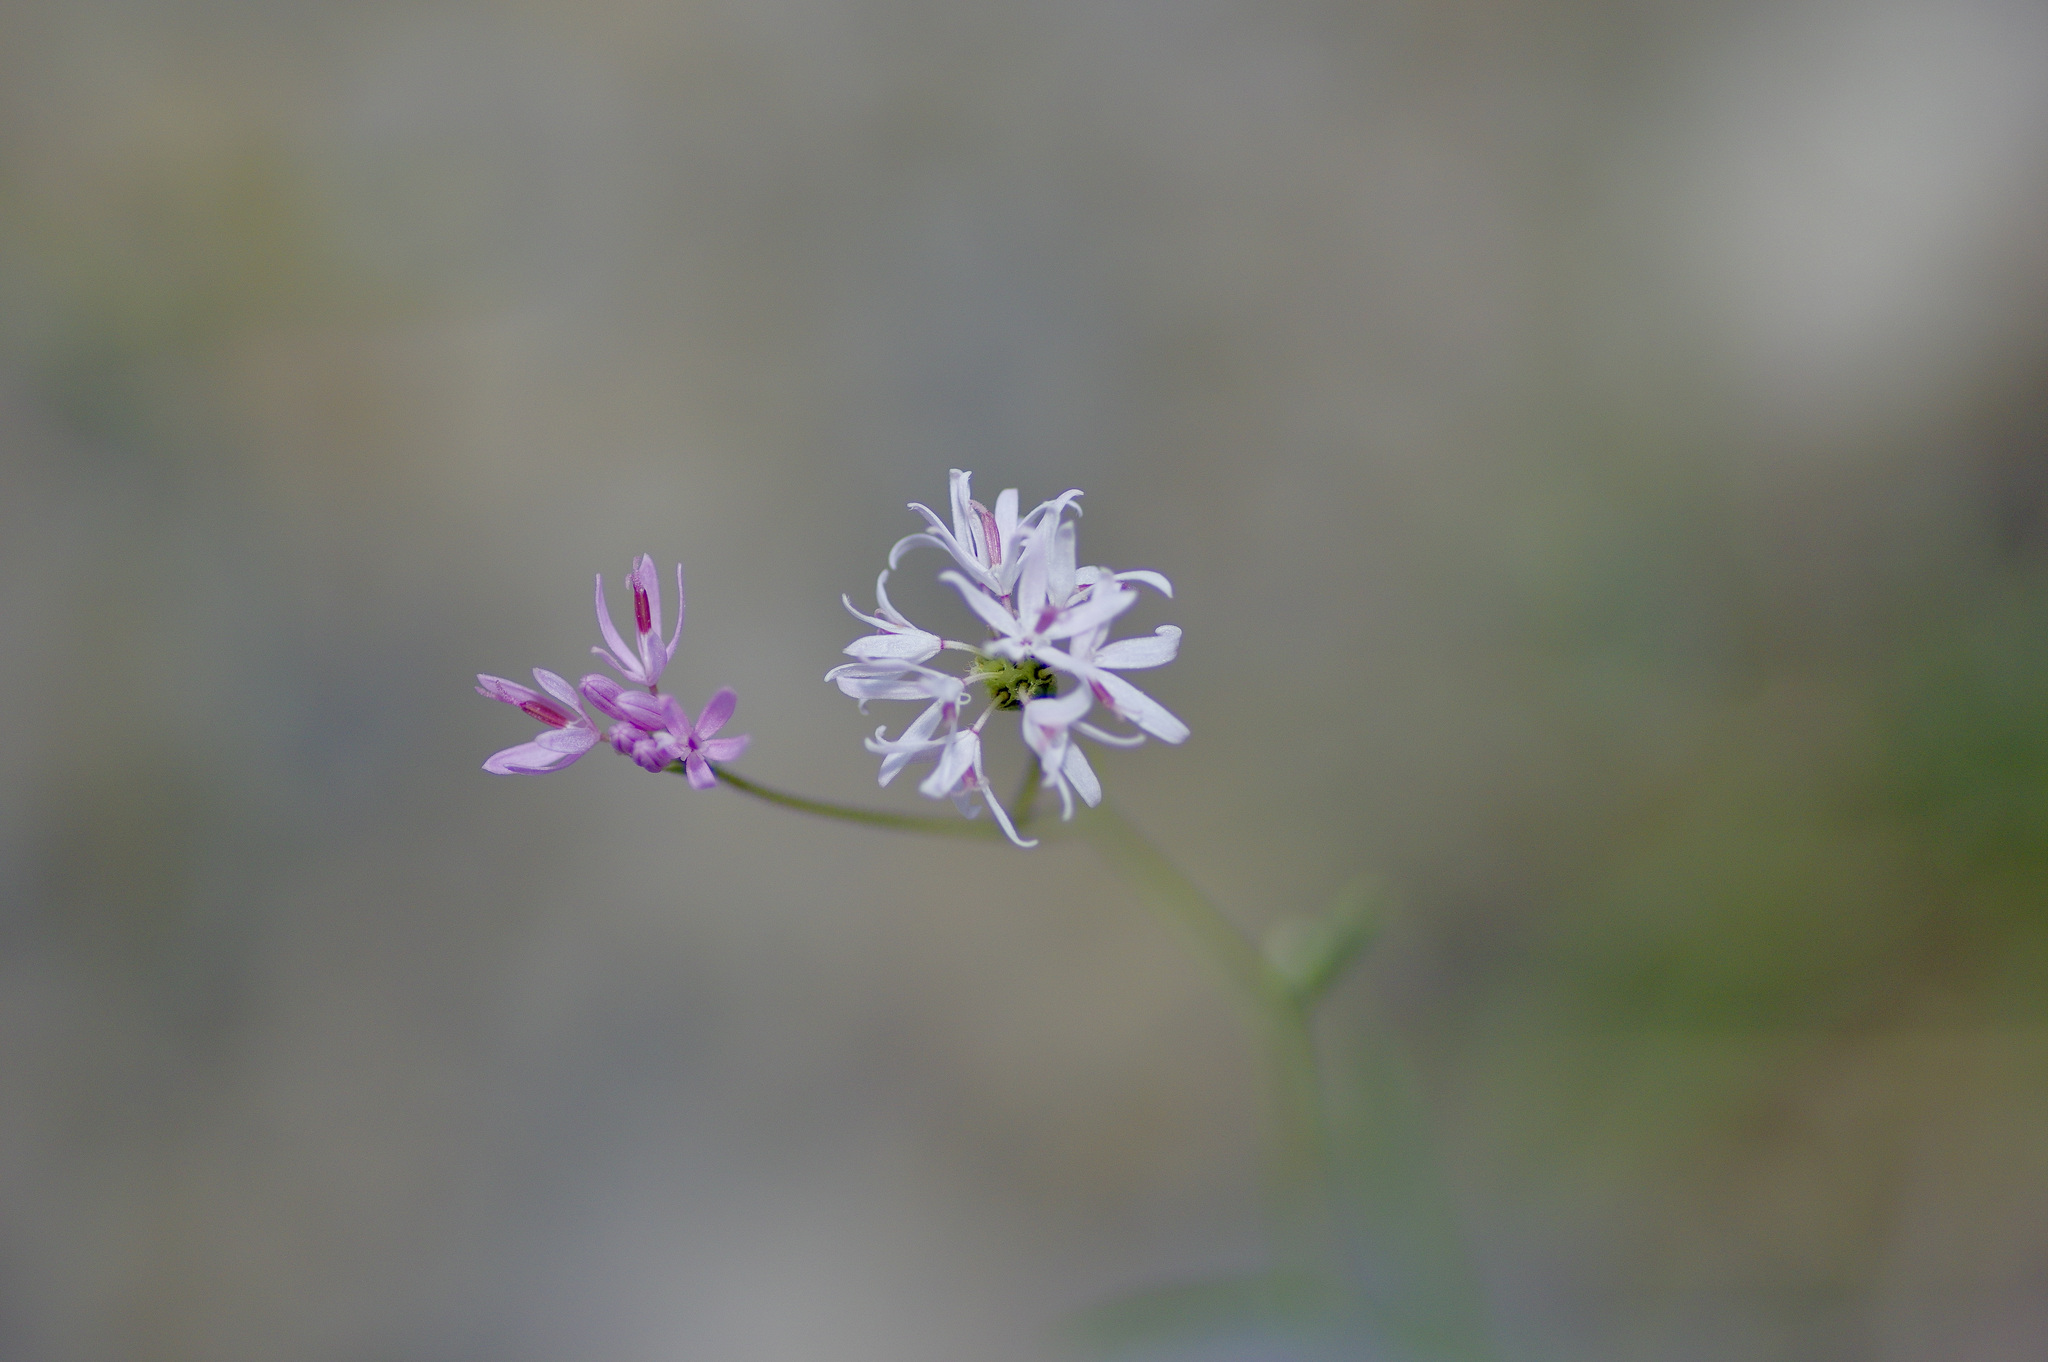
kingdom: Plantae
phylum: Tracheophyta
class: Magnoliopsida
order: Asterales
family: Asteraceae
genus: Palafoxia
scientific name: Palafoxia callosa
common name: Small palafox
